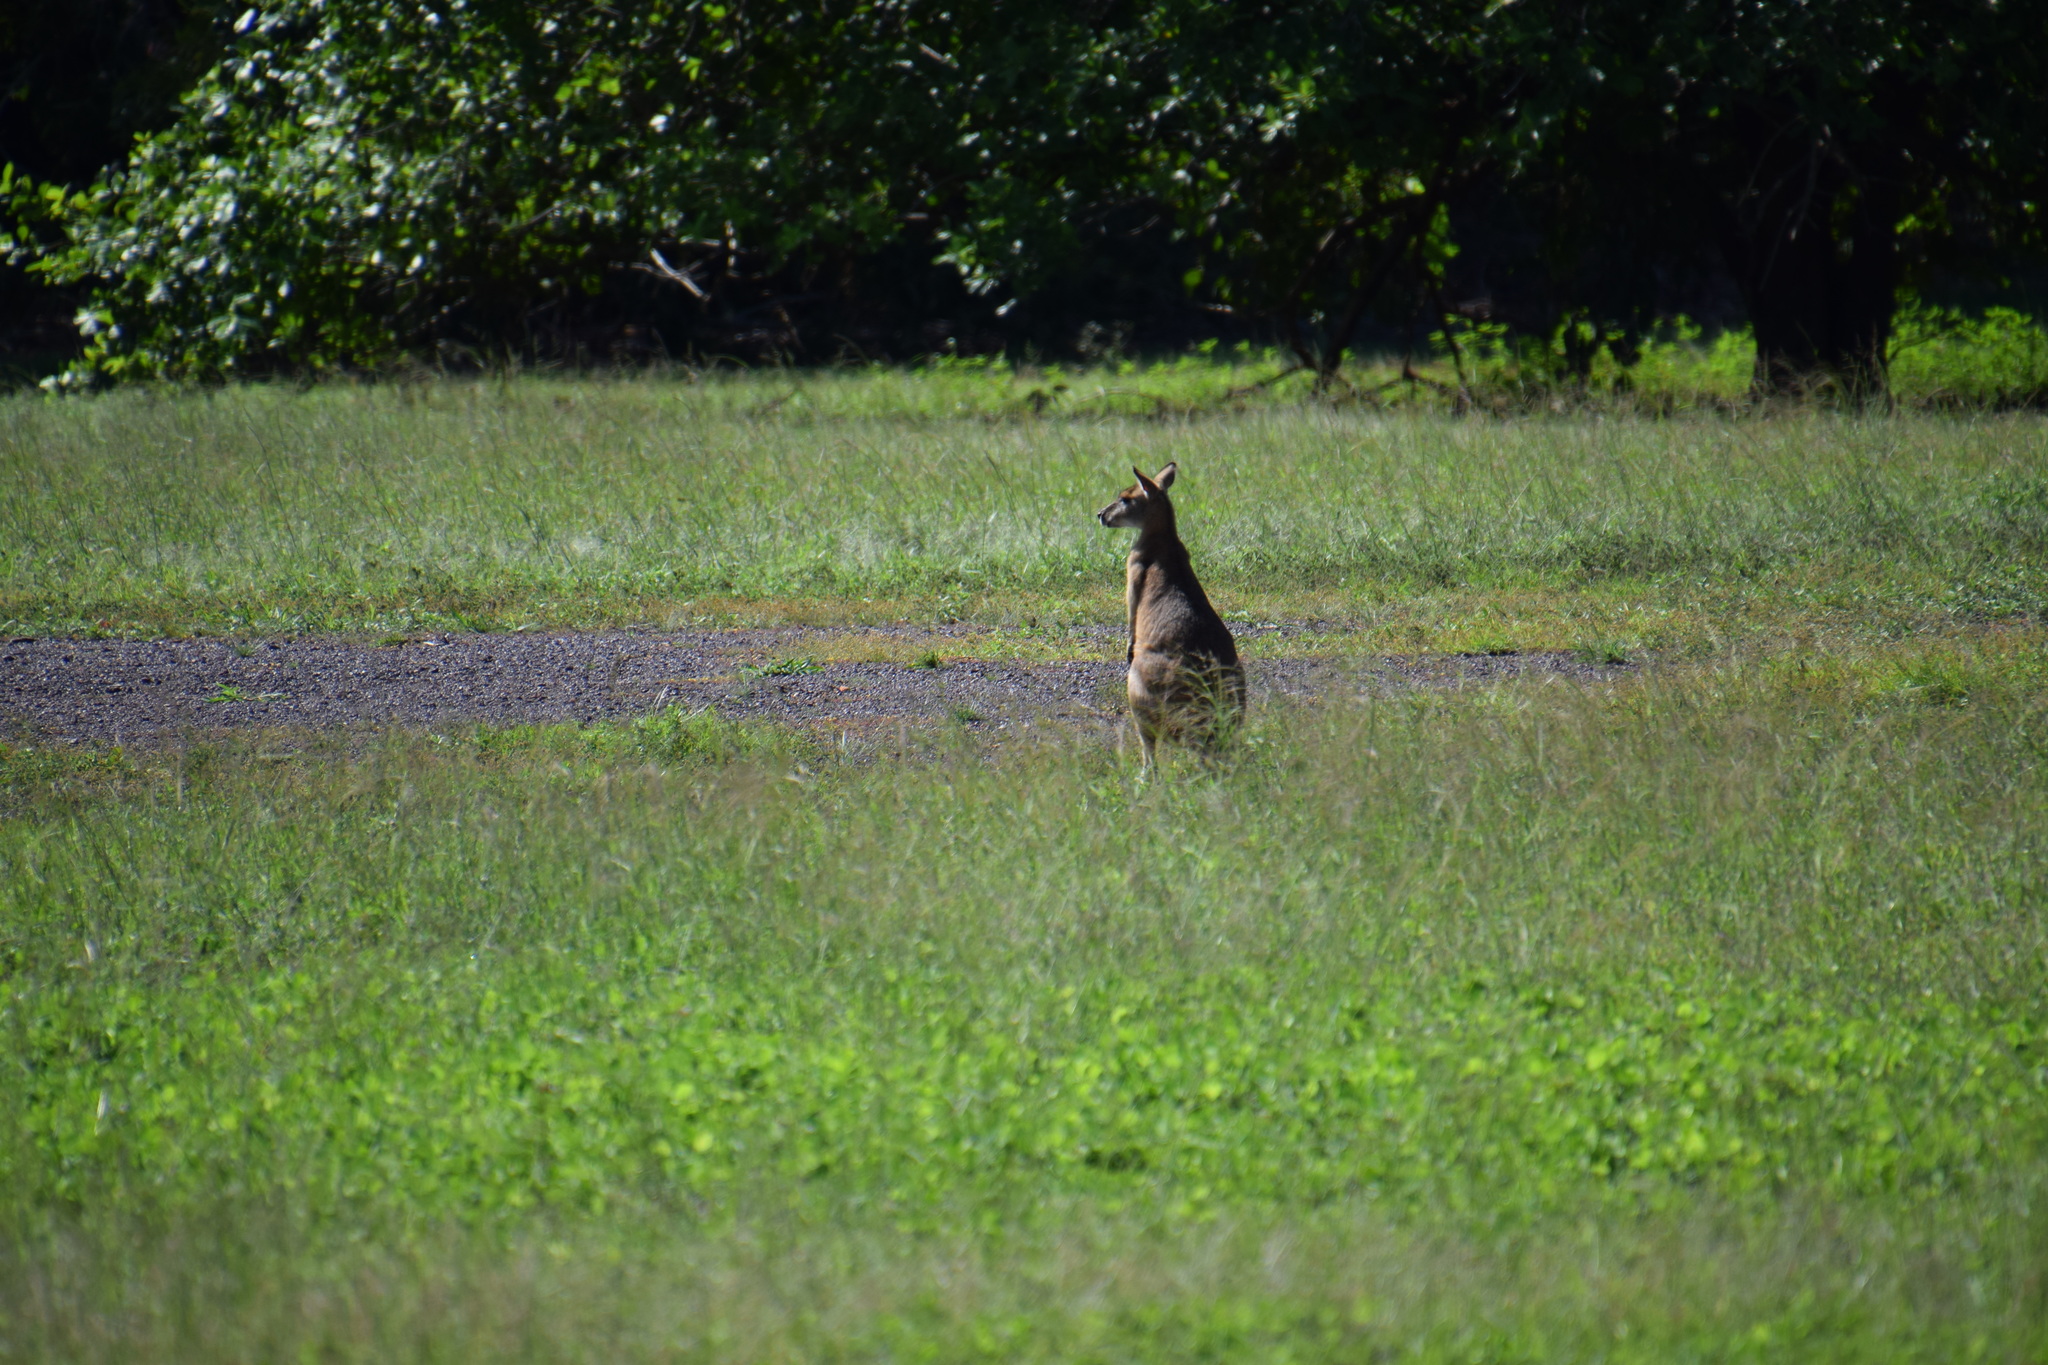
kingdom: Animalia
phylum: Chordata
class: Mammalia
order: Diprotodontia
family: Macropodidae
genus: Macropus
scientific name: Macropus agilis
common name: Agile wallaby
